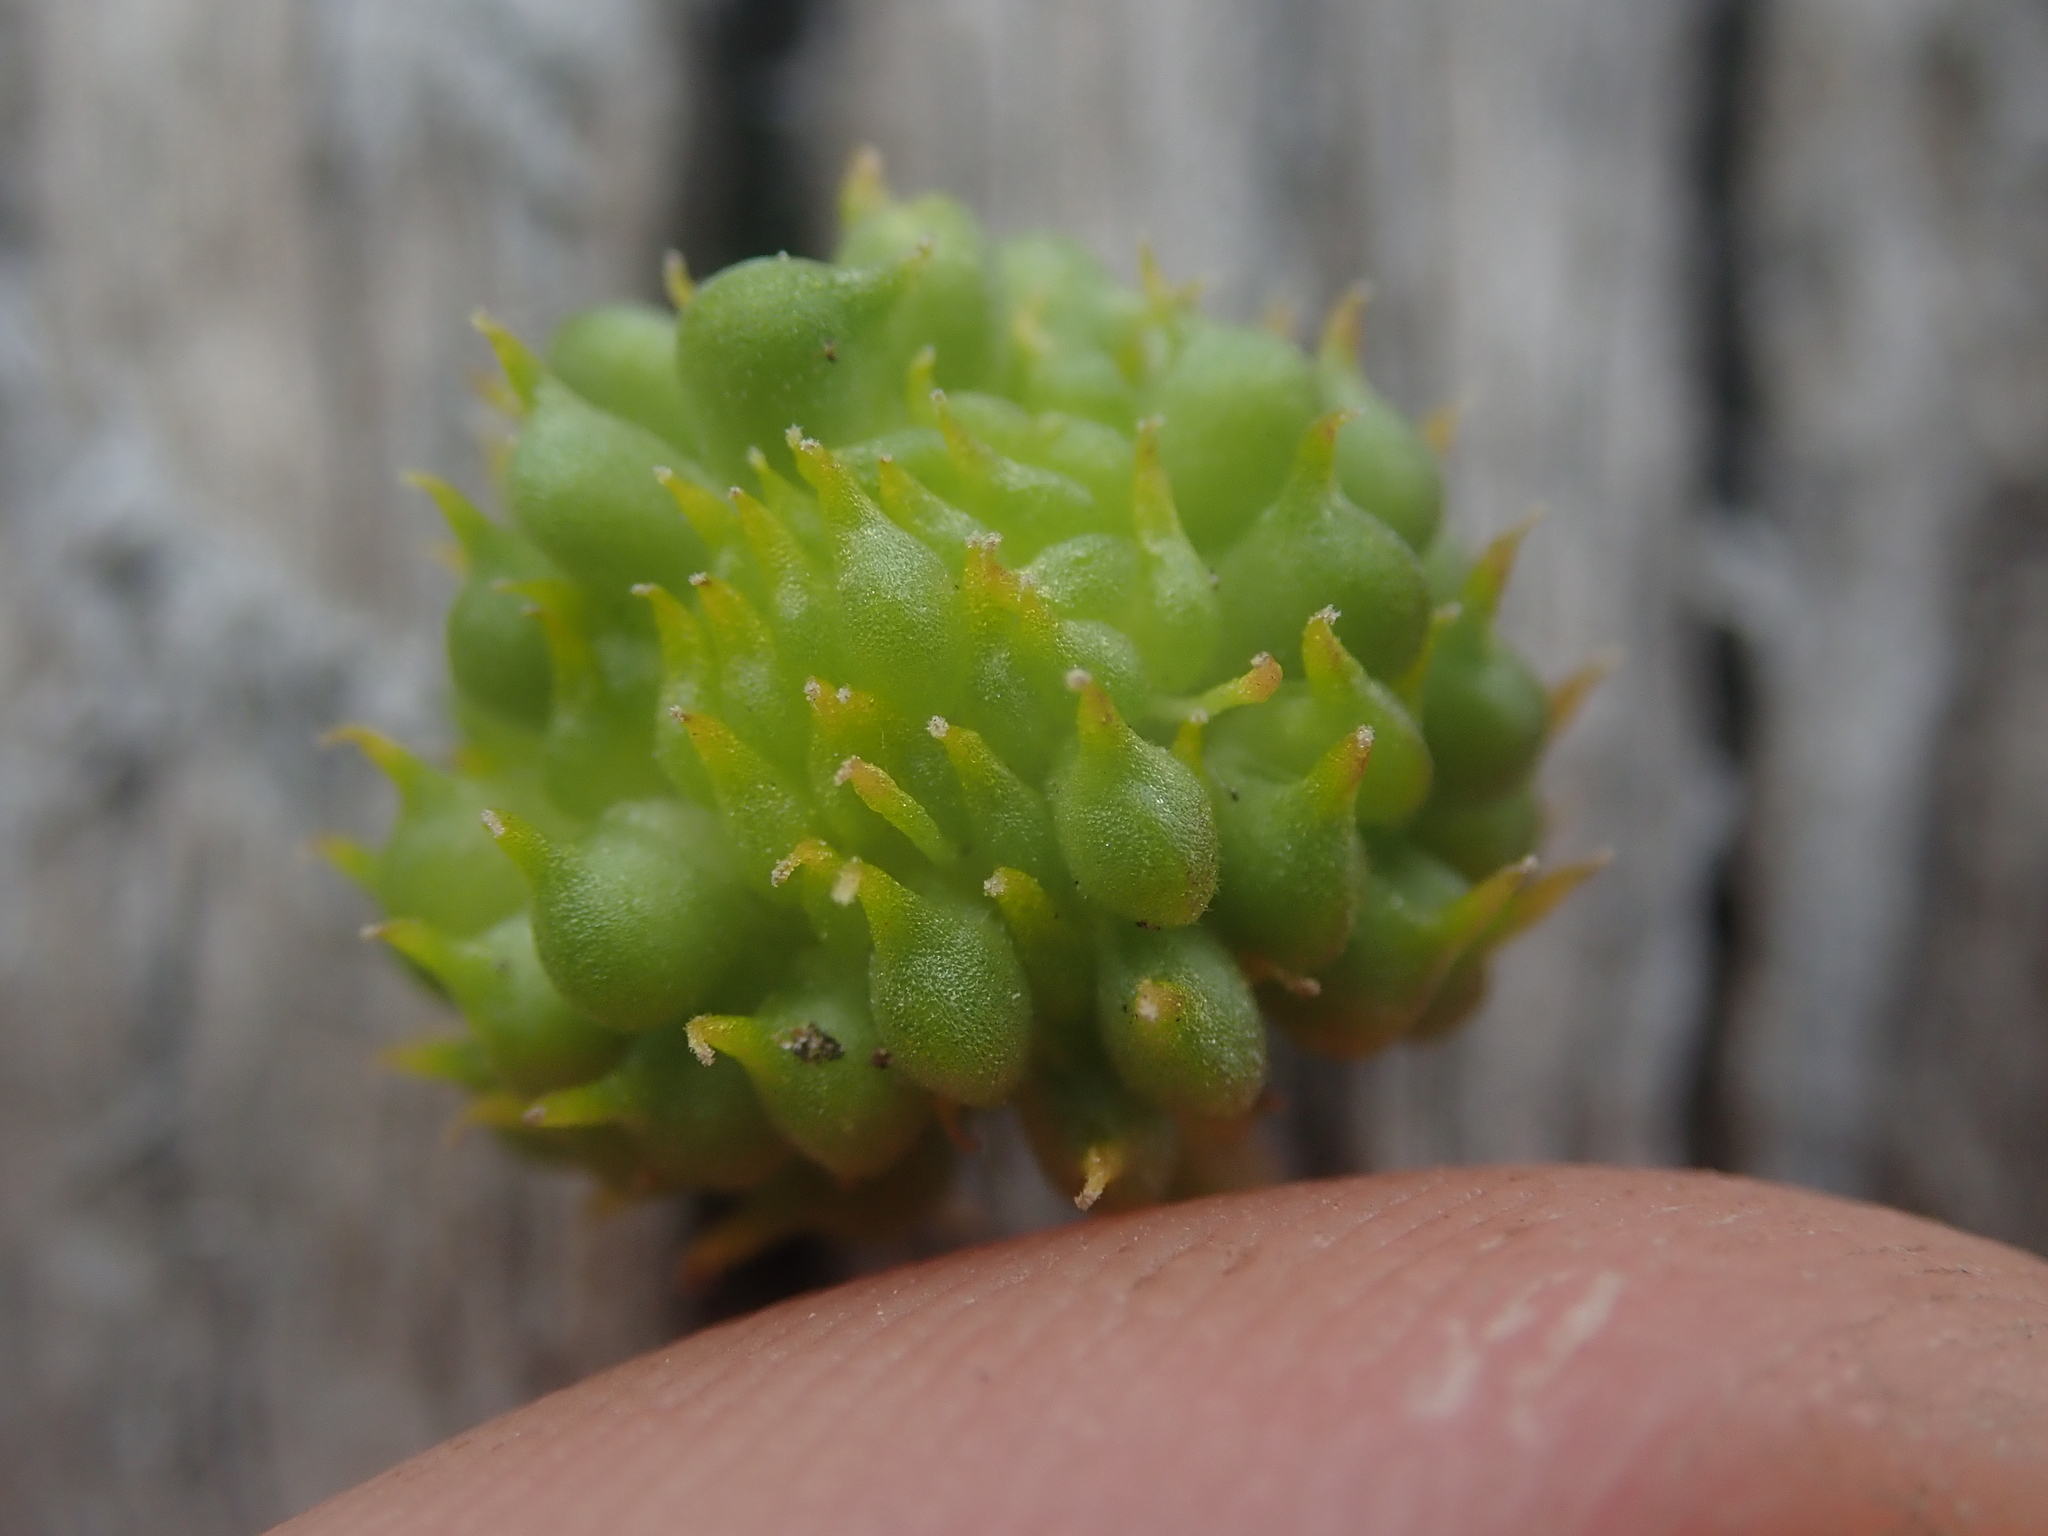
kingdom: Plantae
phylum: Tracheophyta
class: Magnoliopsida
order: Ranunculales
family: Ranunculaceae
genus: Ranunculus
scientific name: Ranunculus glaberrimus
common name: Sagebrush buttercup
